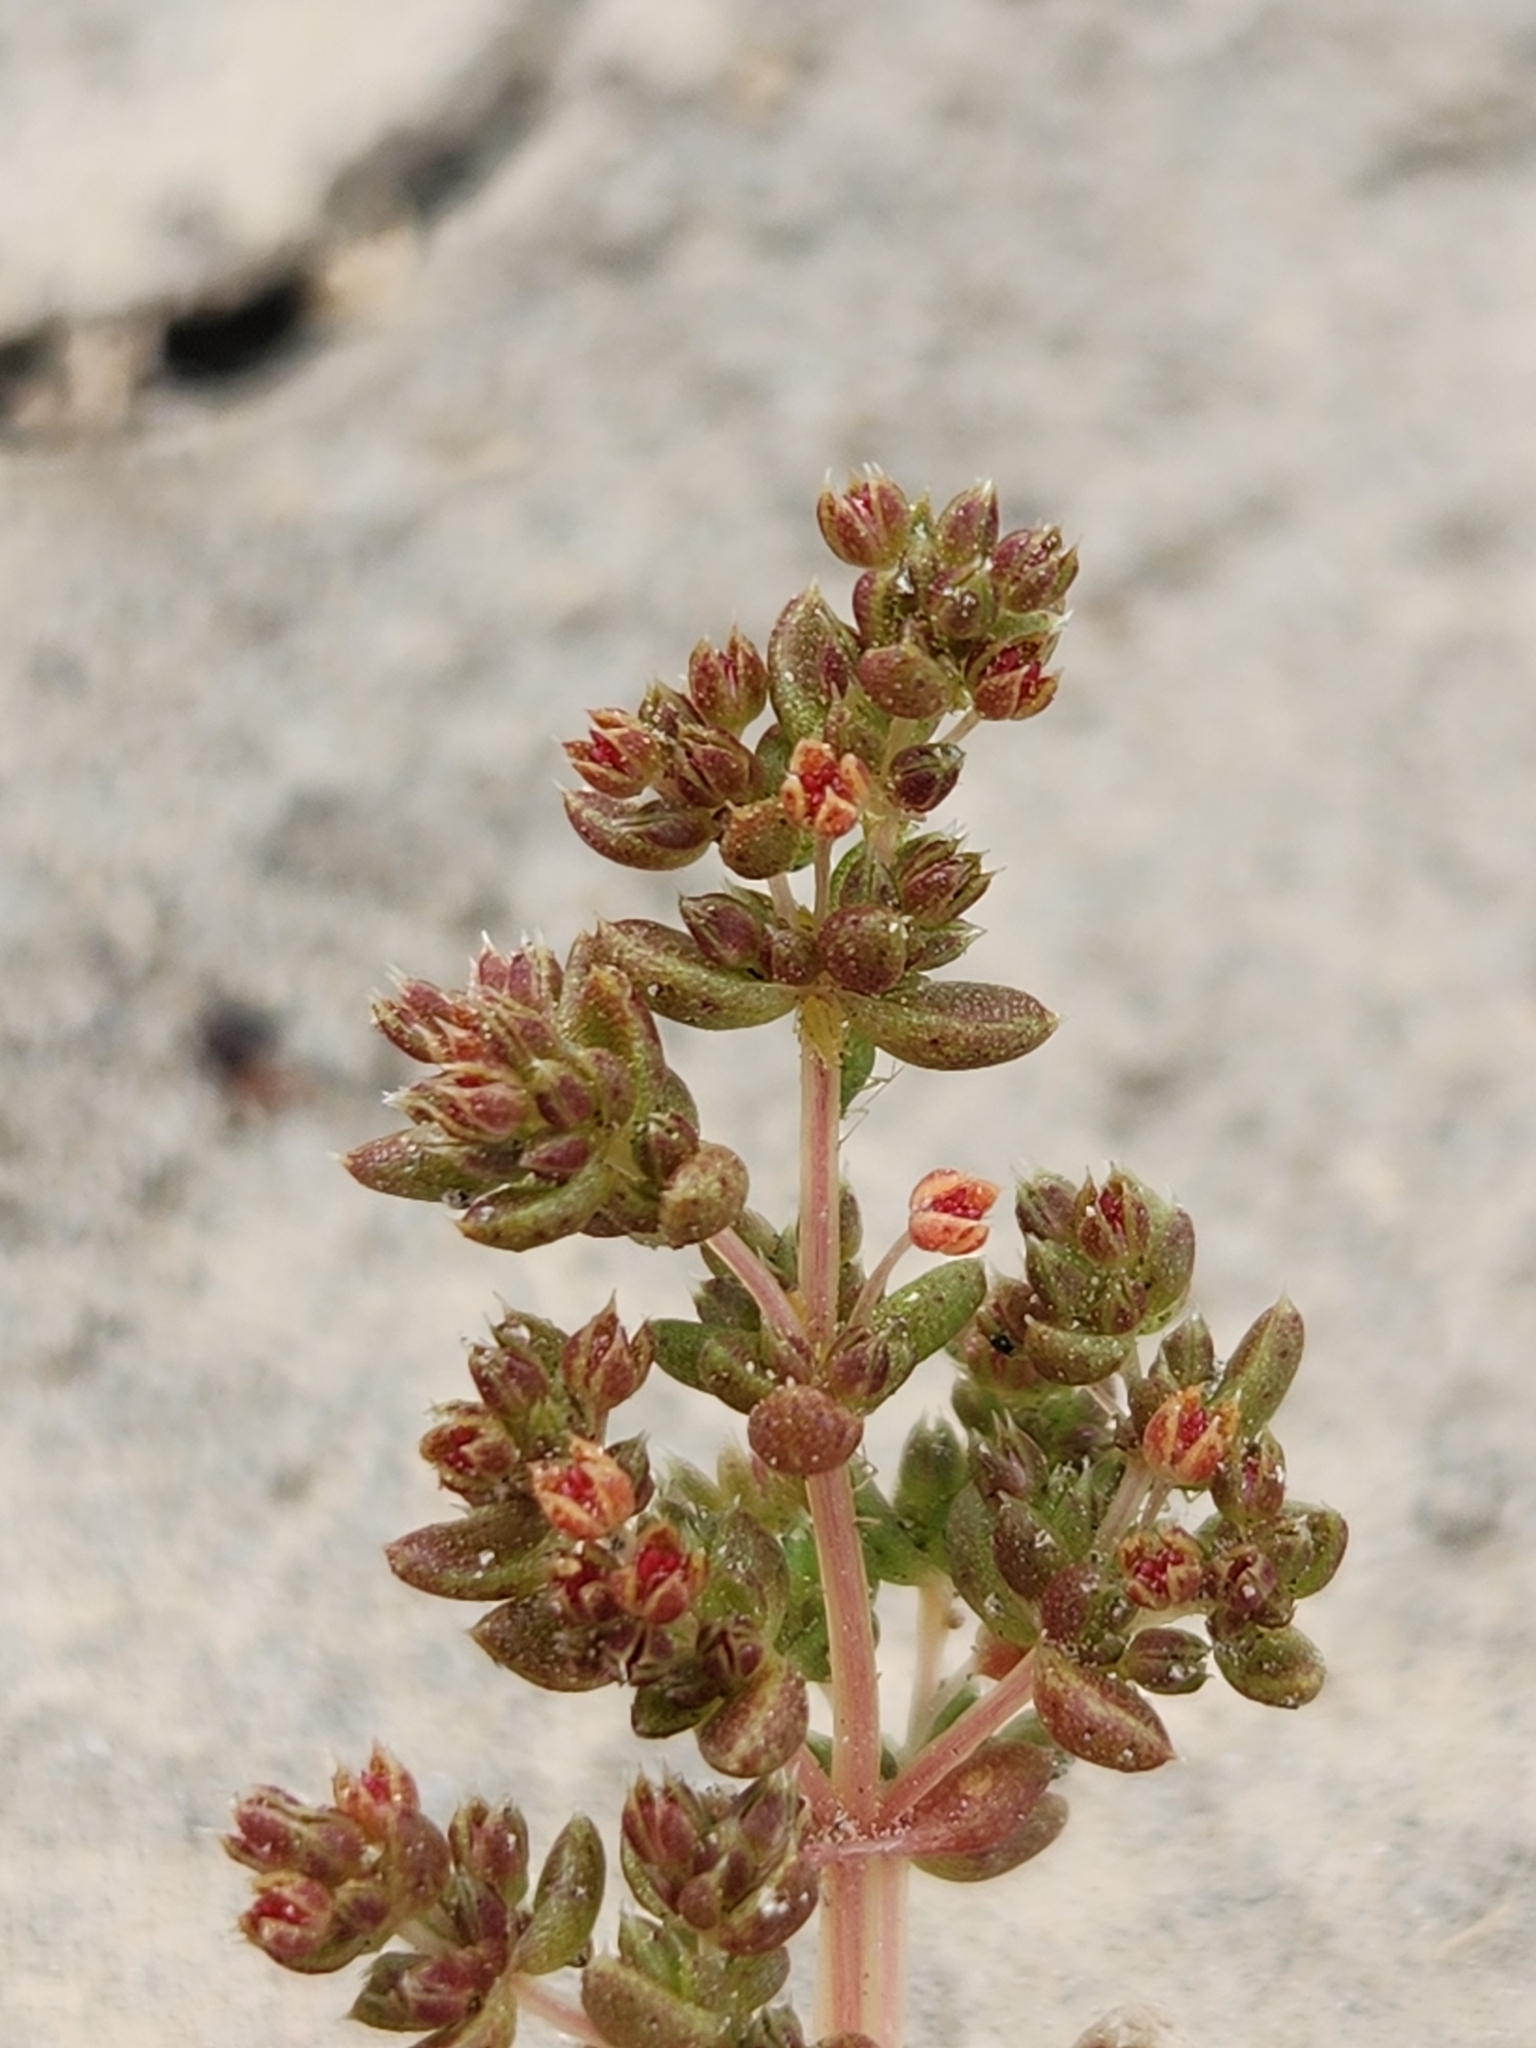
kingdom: Plantae
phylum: Tracheophyta
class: Magnoliopsida
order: Saxifragales
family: Crassulaceae
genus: Crassula
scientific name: Crassula connata
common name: Erect pygmyweed
